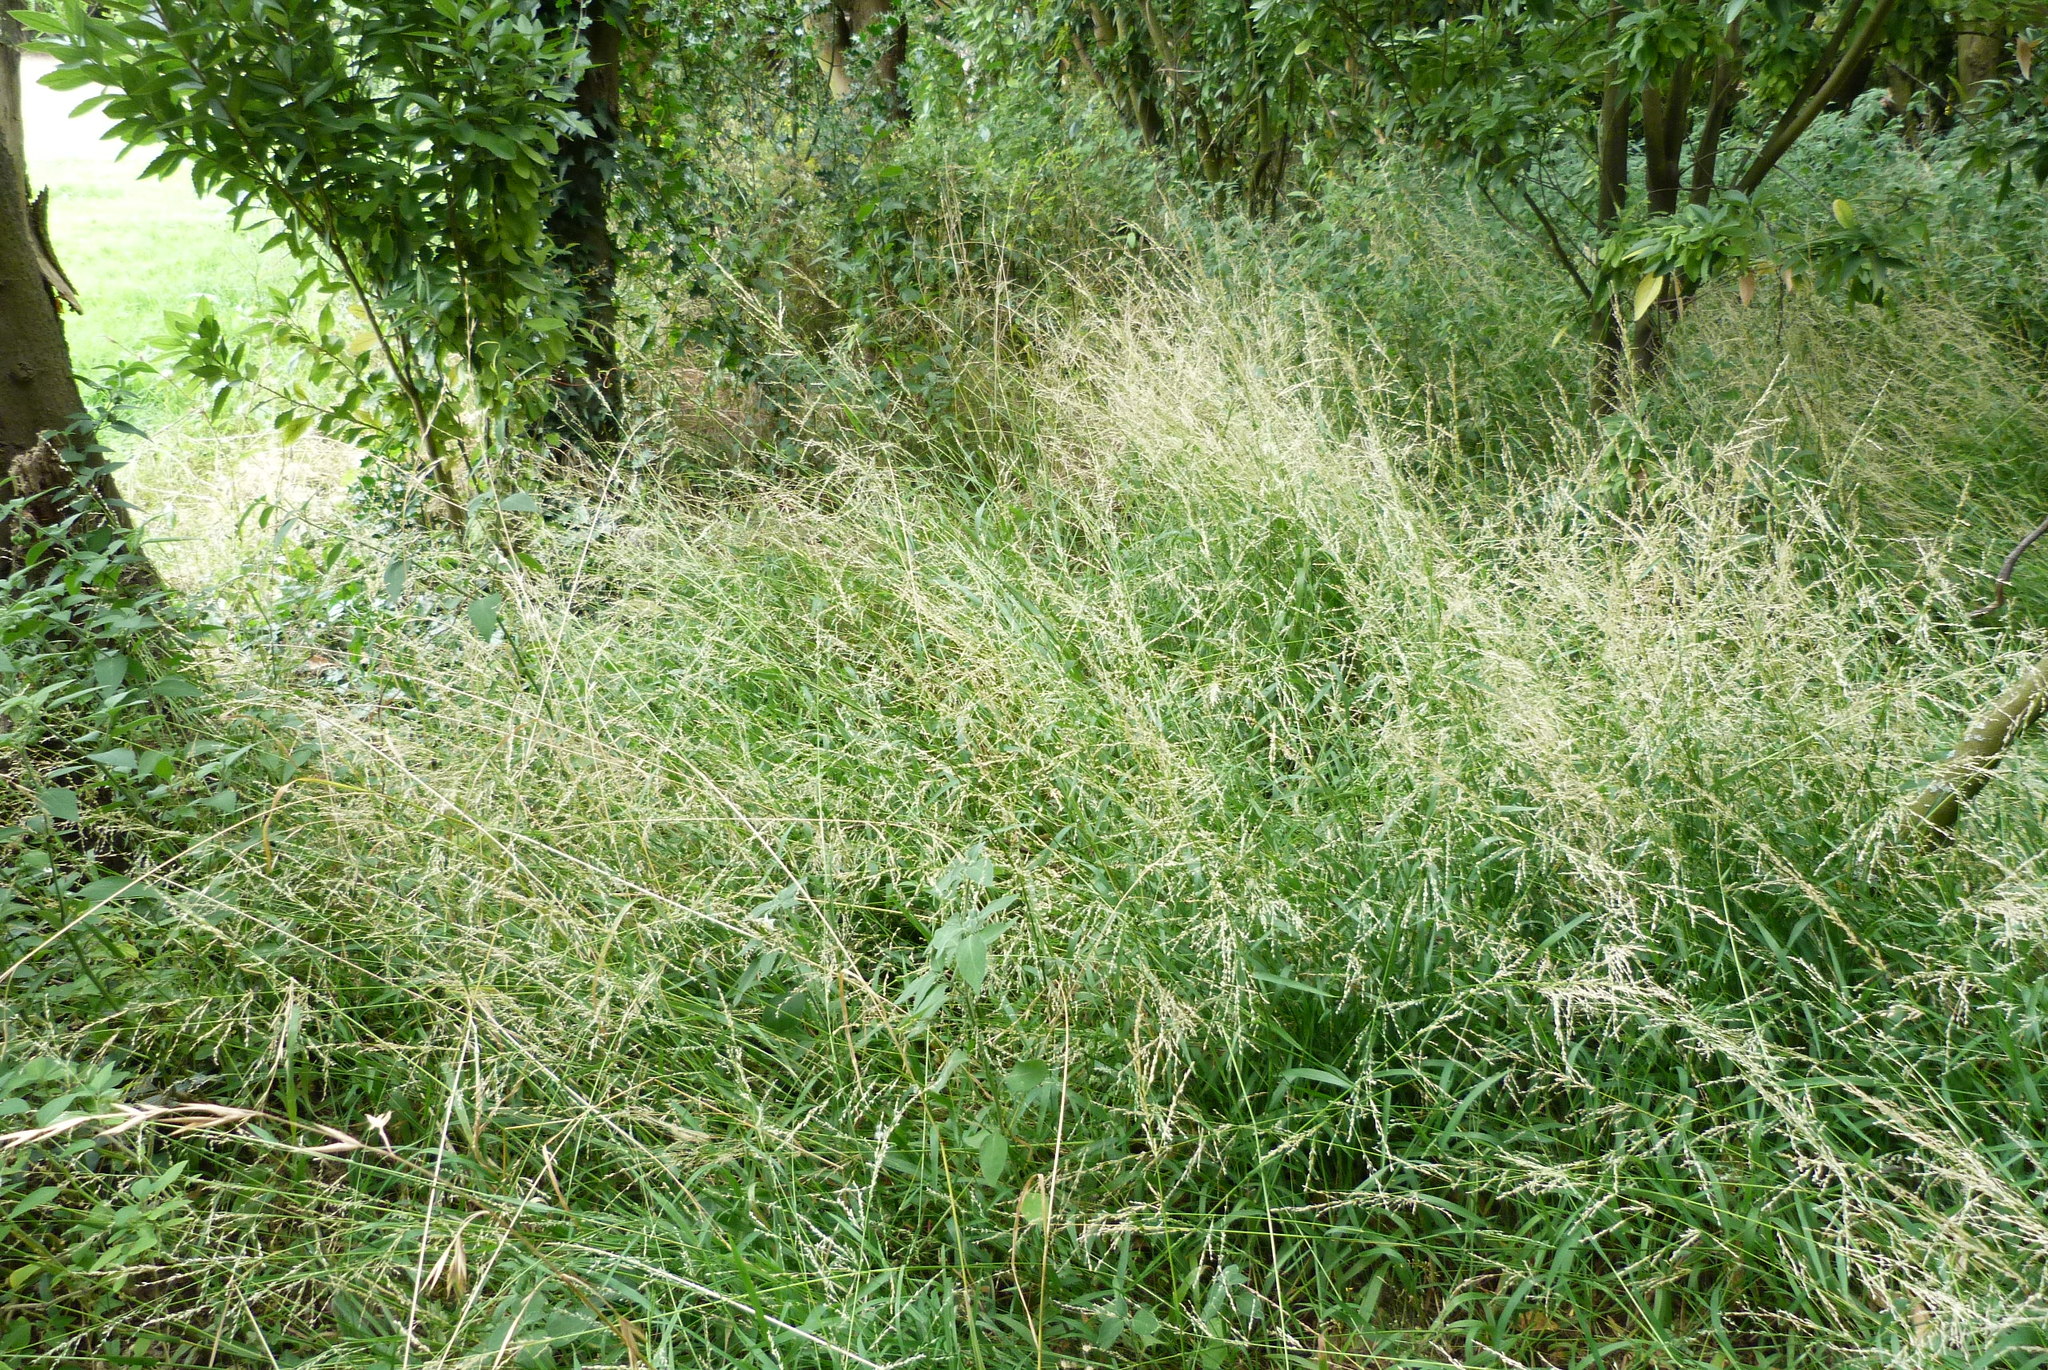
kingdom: Plantae
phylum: Tracheophyta
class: Liliopsida
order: Poales
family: Poaceae
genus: Ehrharta
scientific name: Ehrharta erecta
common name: Panic veldtgrass
